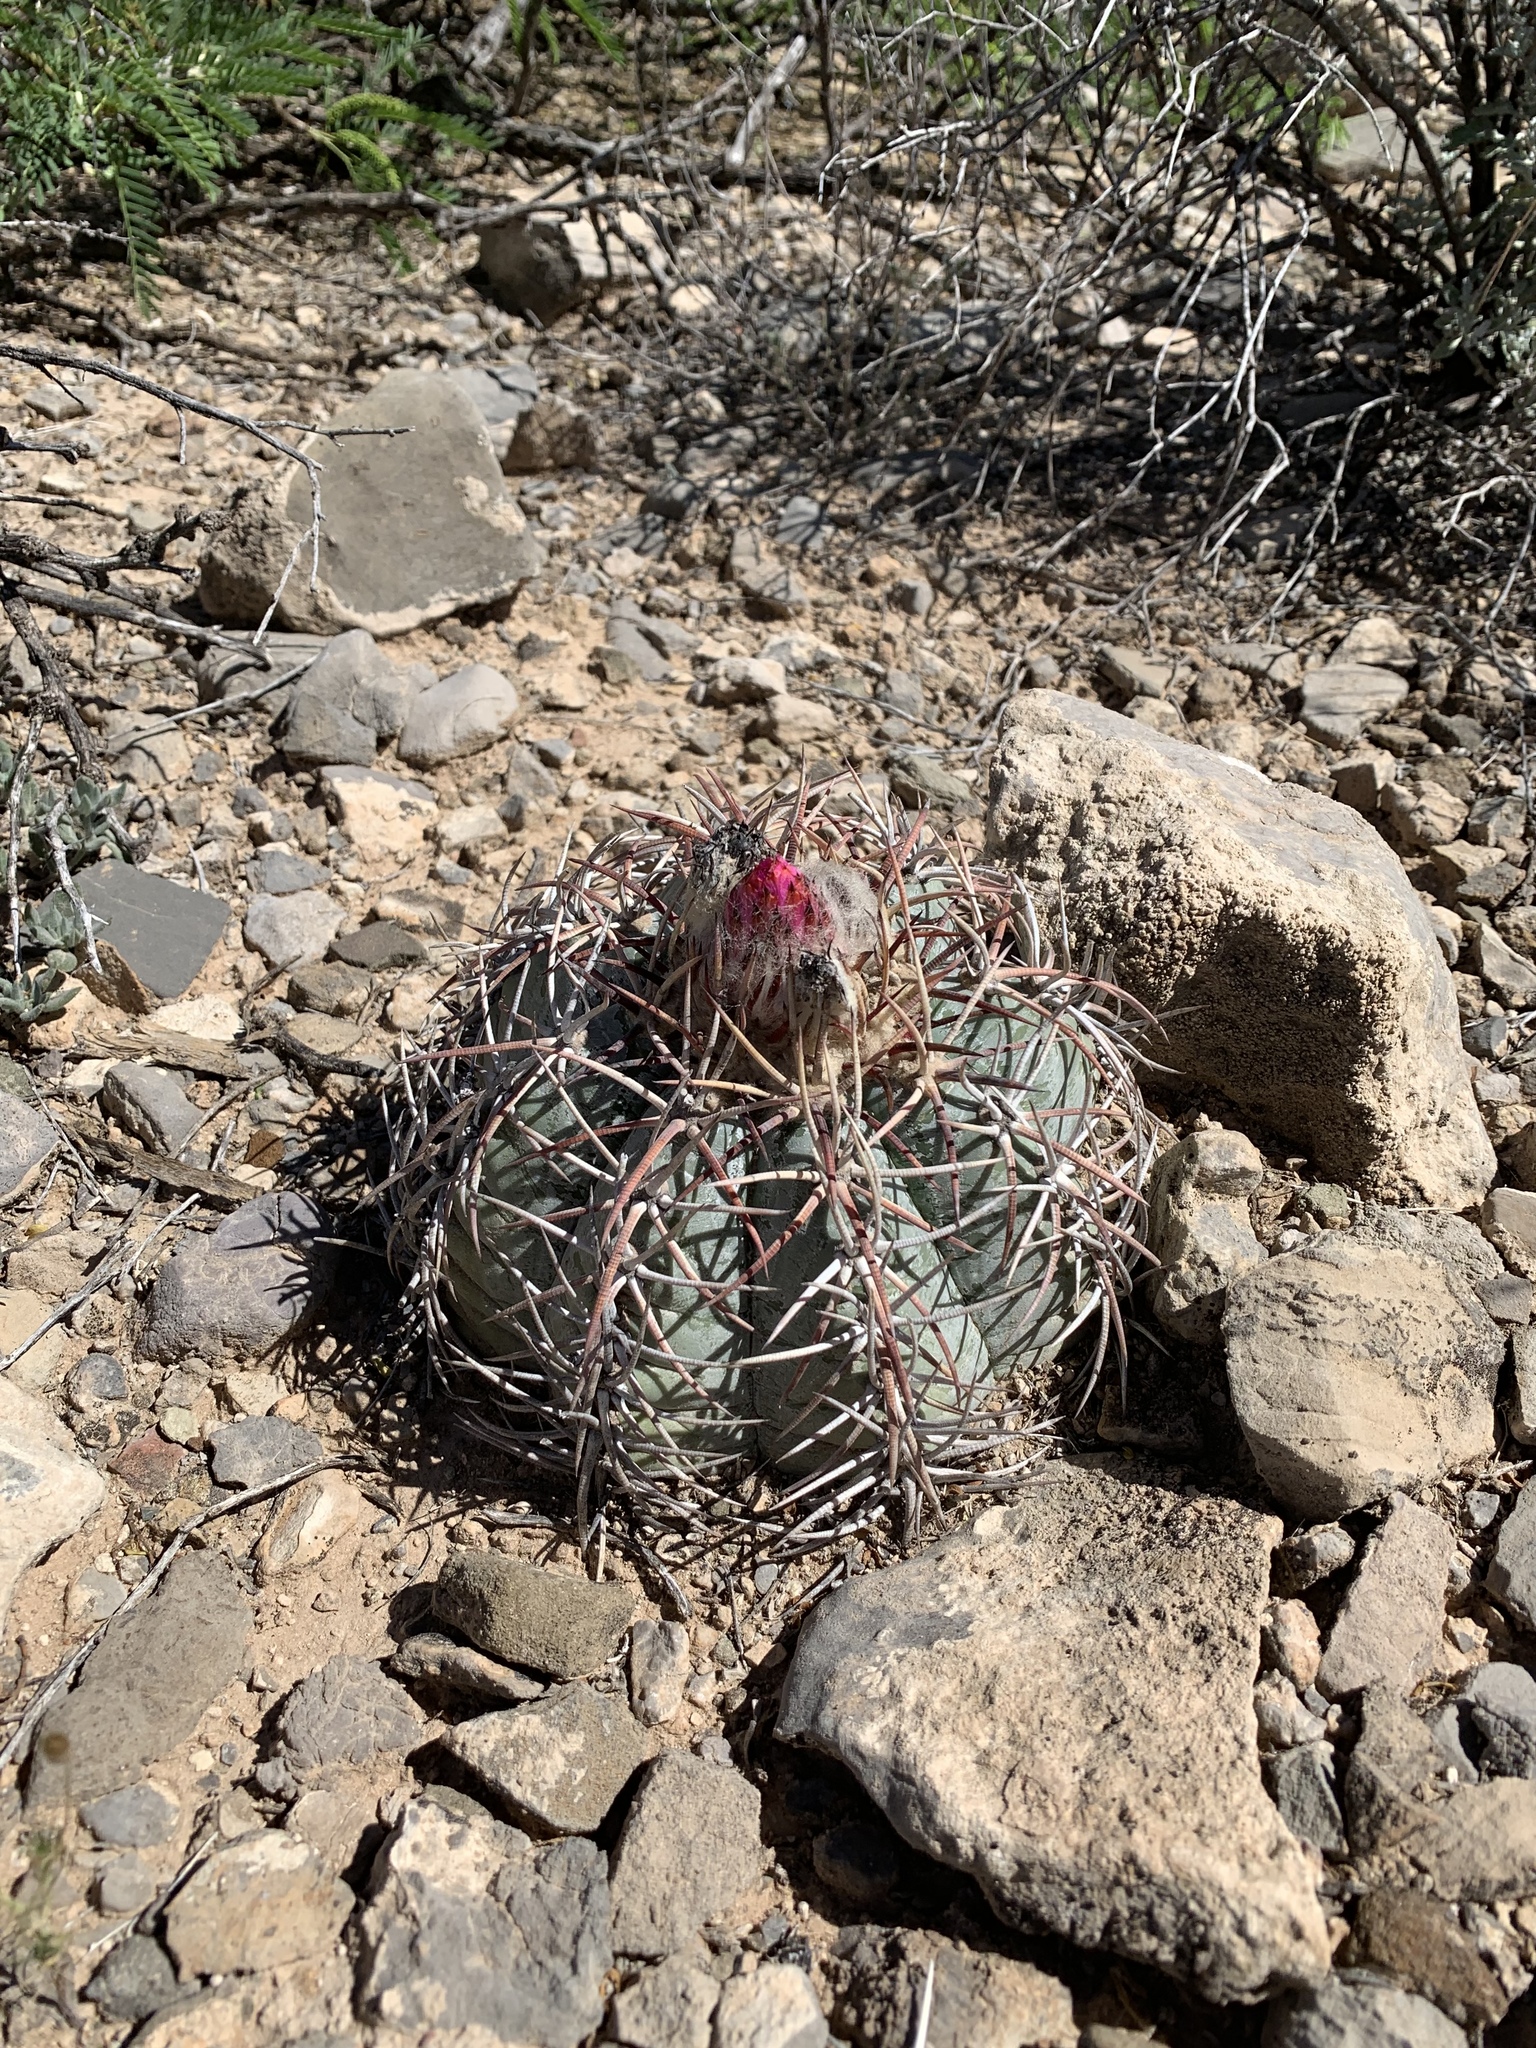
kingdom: Plantae
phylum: Tracheophyta
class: Magnoliopsida
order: Caryophyllales
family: Cactaceae
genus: Echinocactus
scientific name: Echinocactus horizonthalonius
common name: Devilshead
